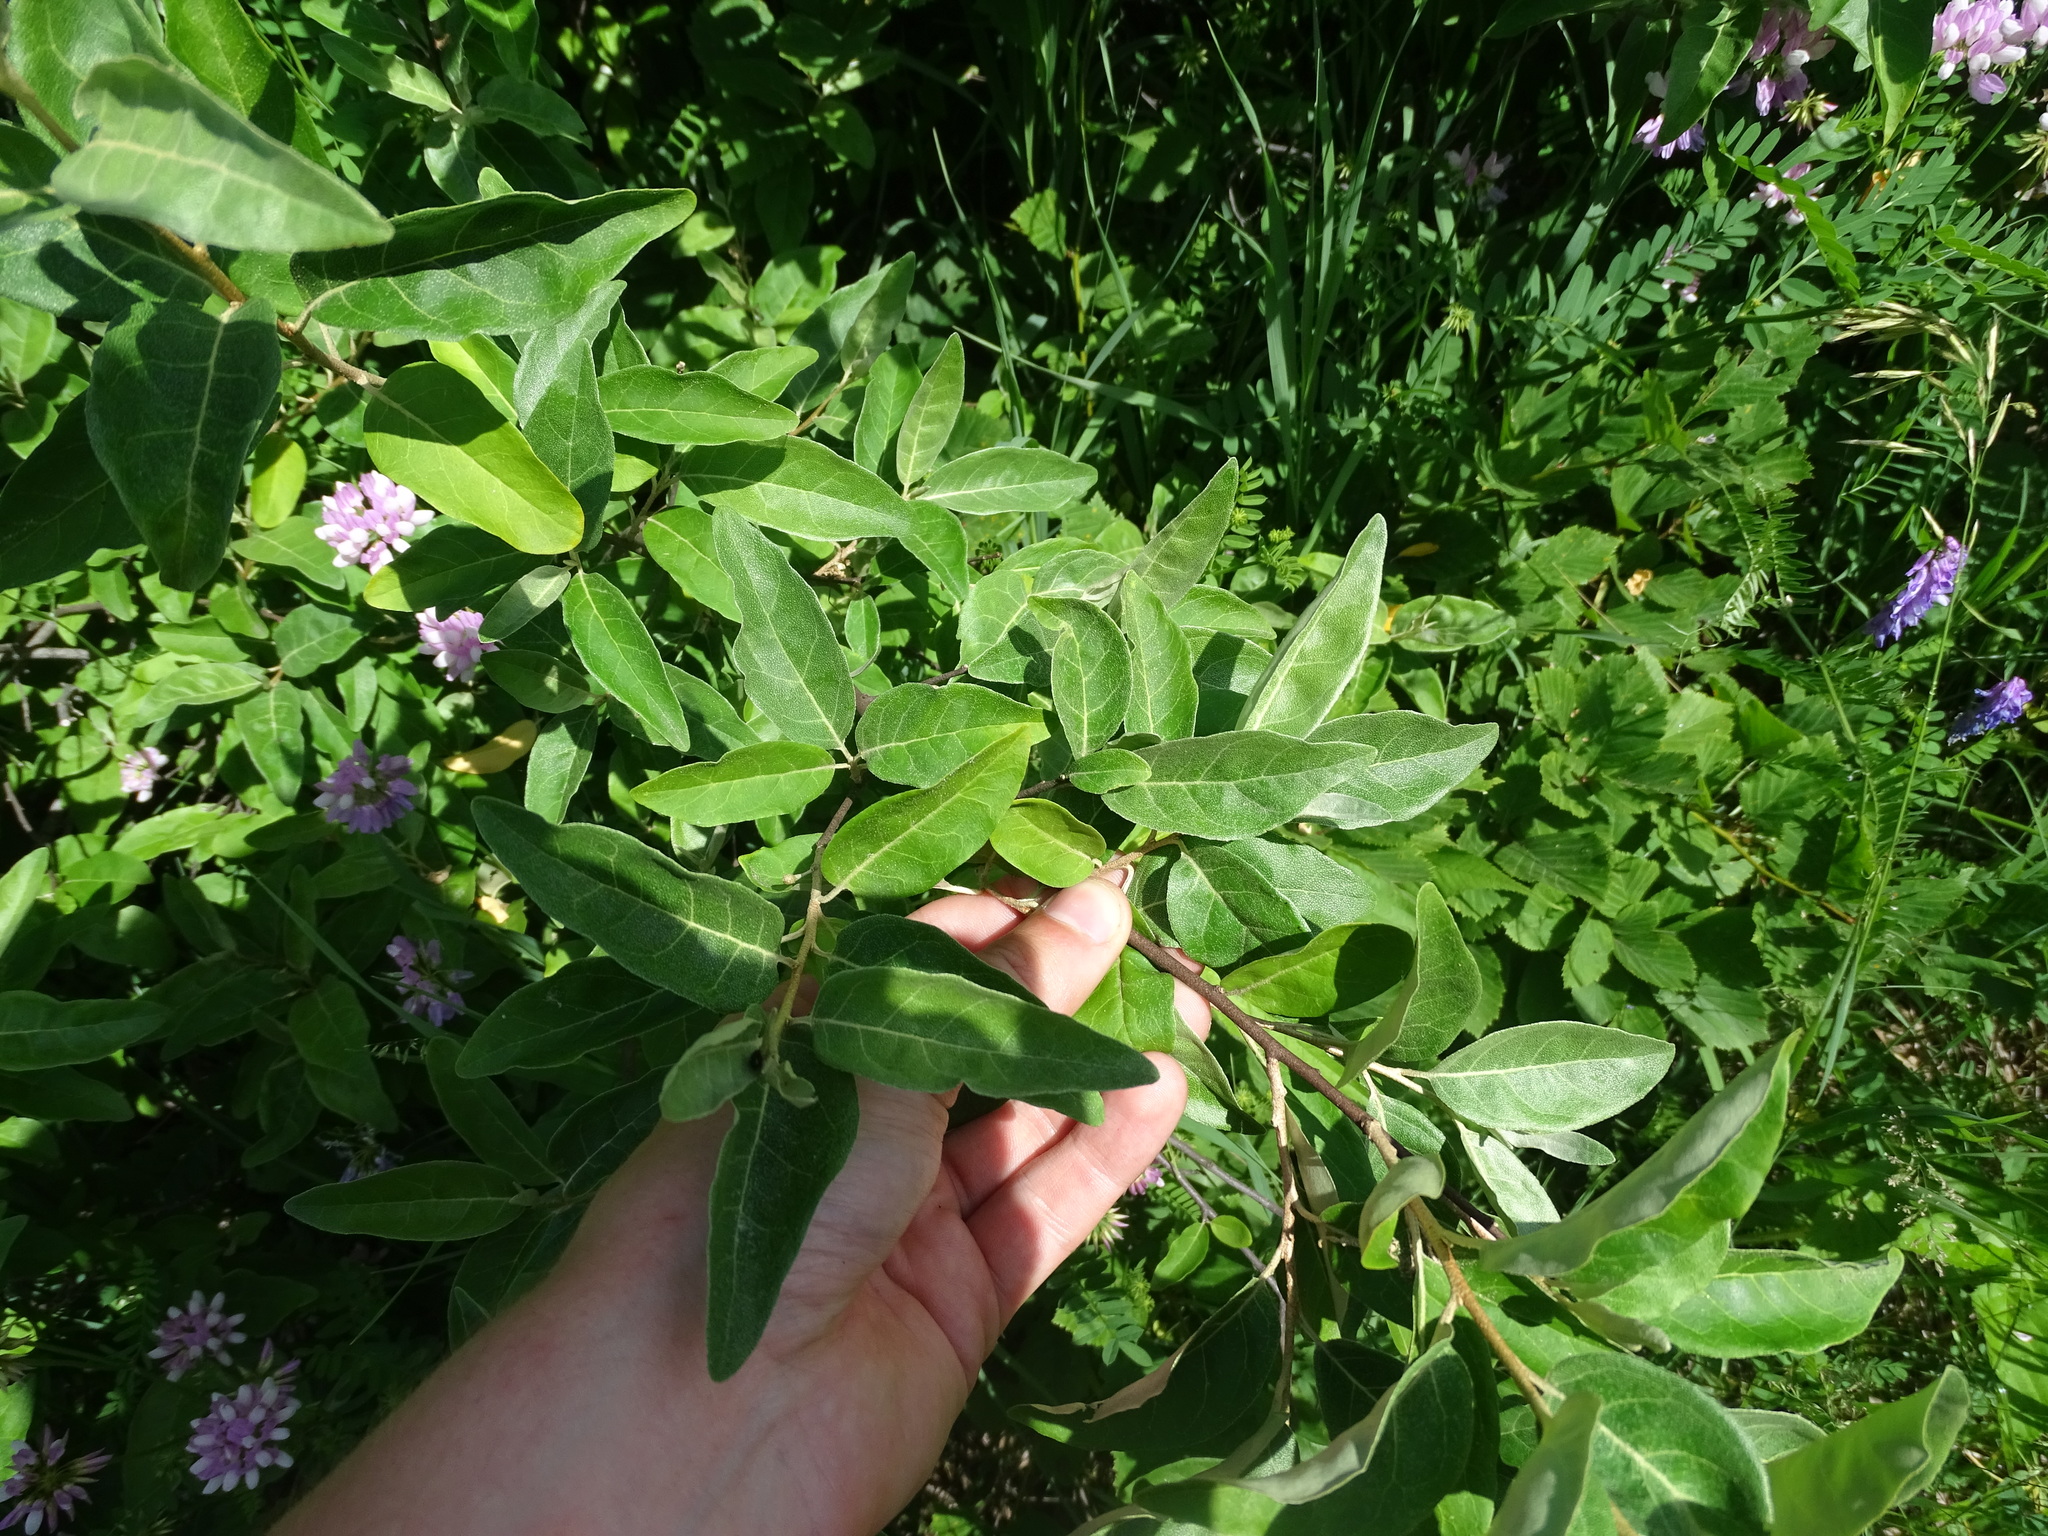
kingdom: Plantae
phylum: Tracheophyta
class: Magnoliopsida
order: Rosales
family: Elaeagnaceae
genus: Elaeagnus
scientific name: Elaeagnus angustifolia
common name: Russian olive
